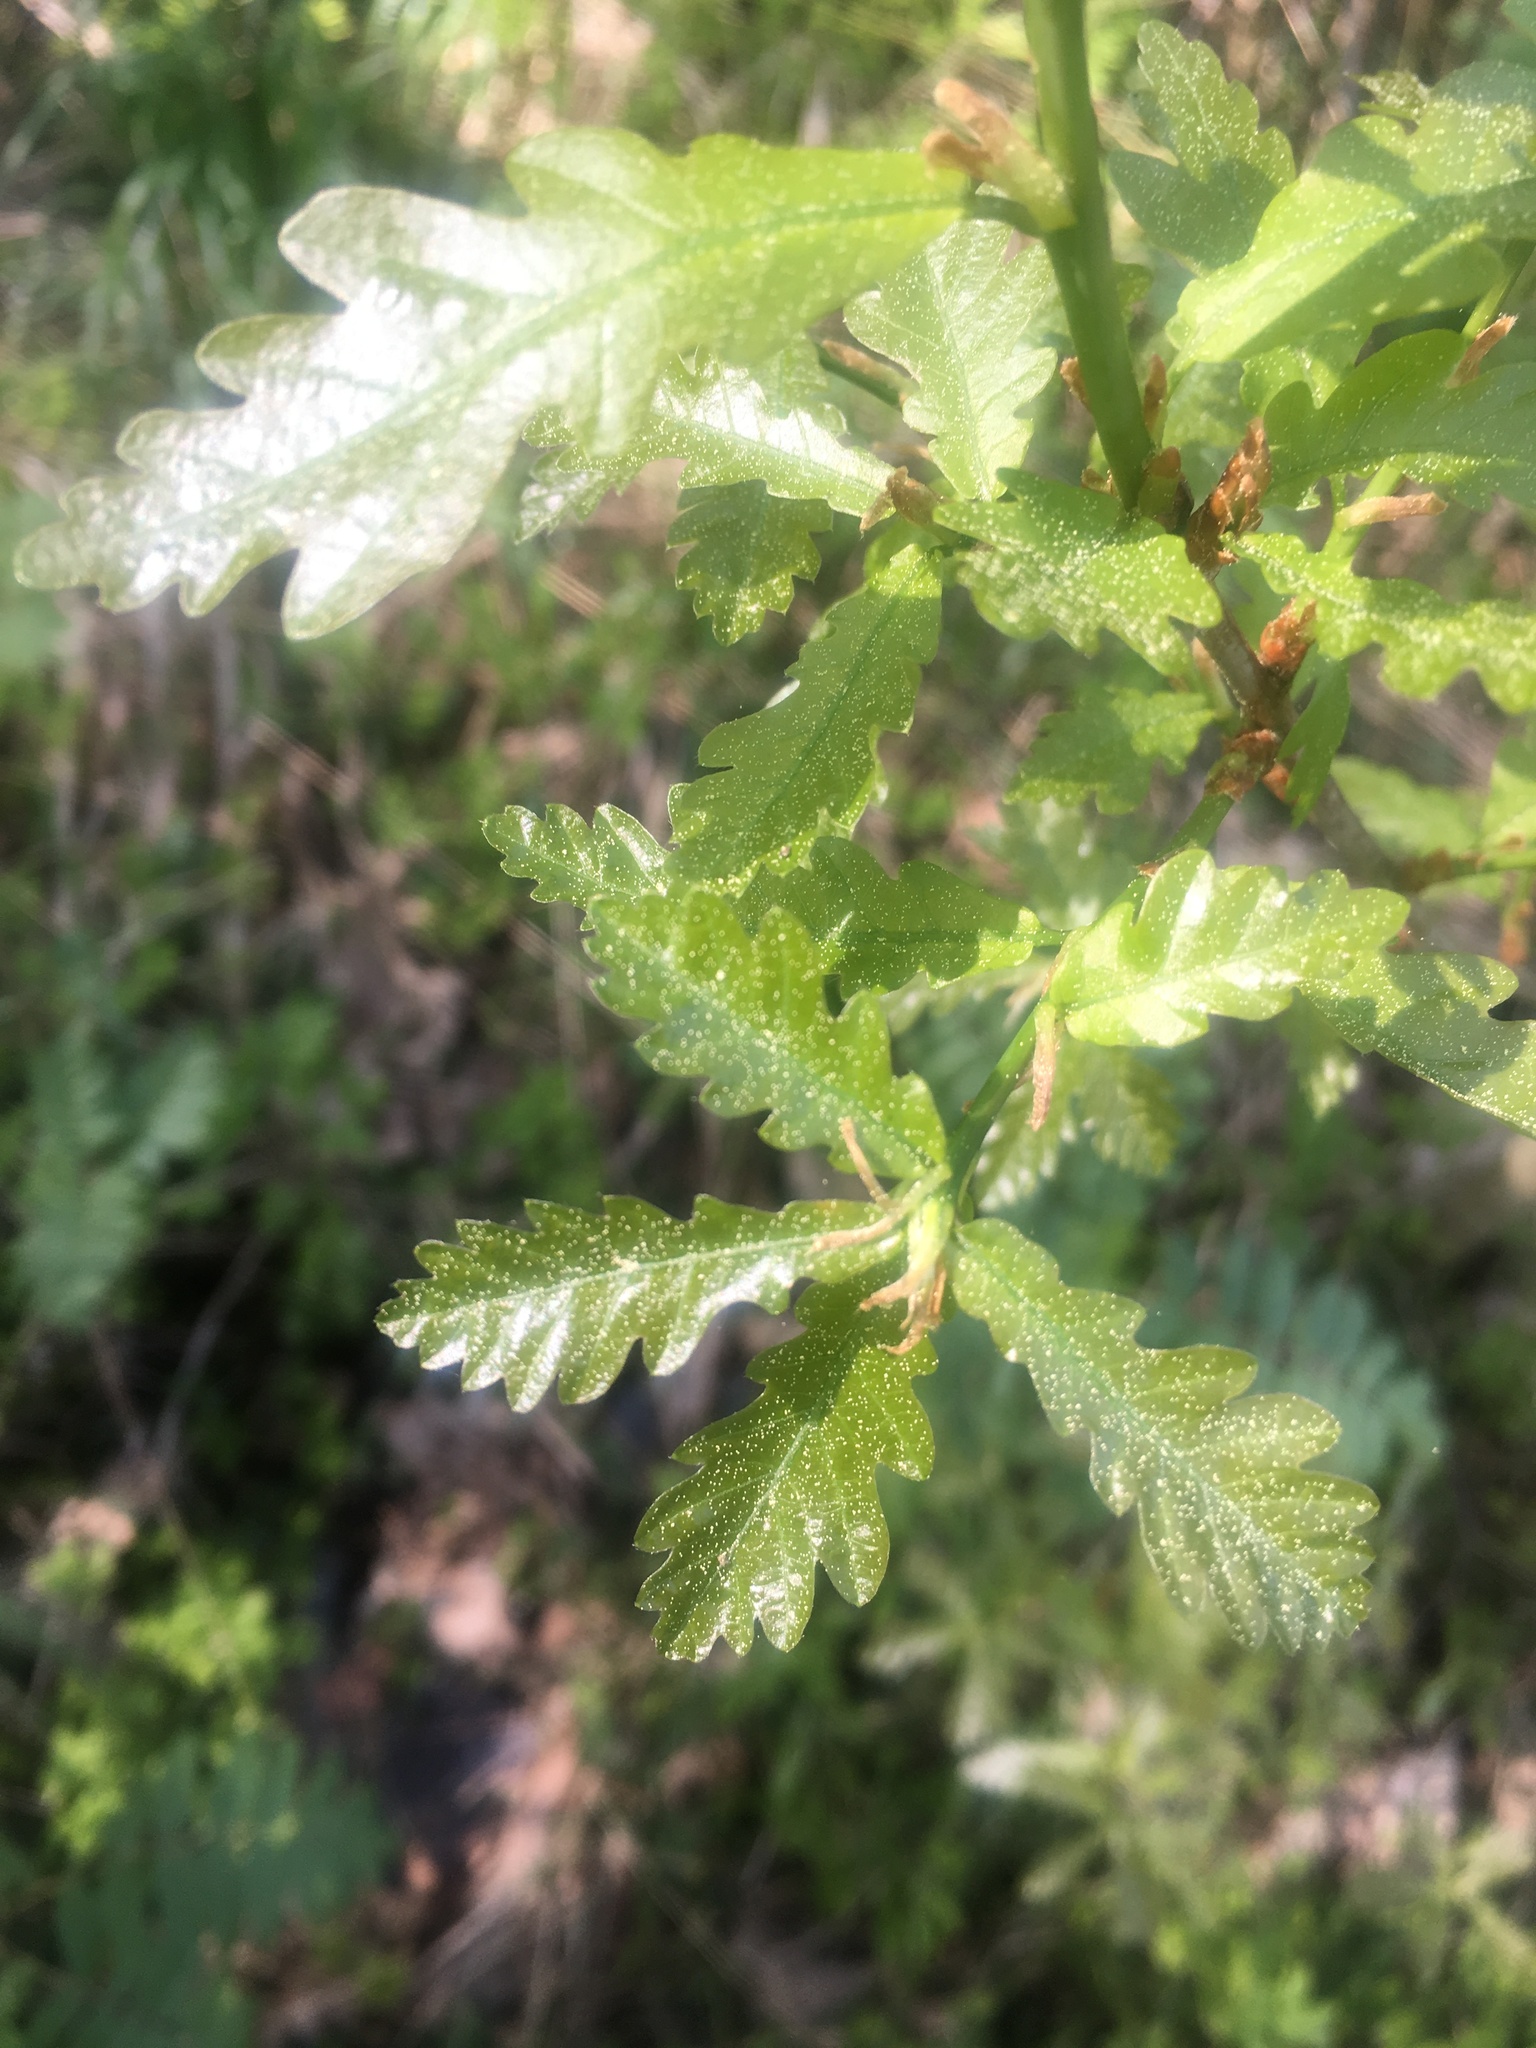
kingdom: Plantae
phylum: Tracheophyta
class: Magnoliopsida
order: Fagales
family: Fagaceae
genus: Quercus
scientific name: Quercus robur
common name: Pedunculate oak
